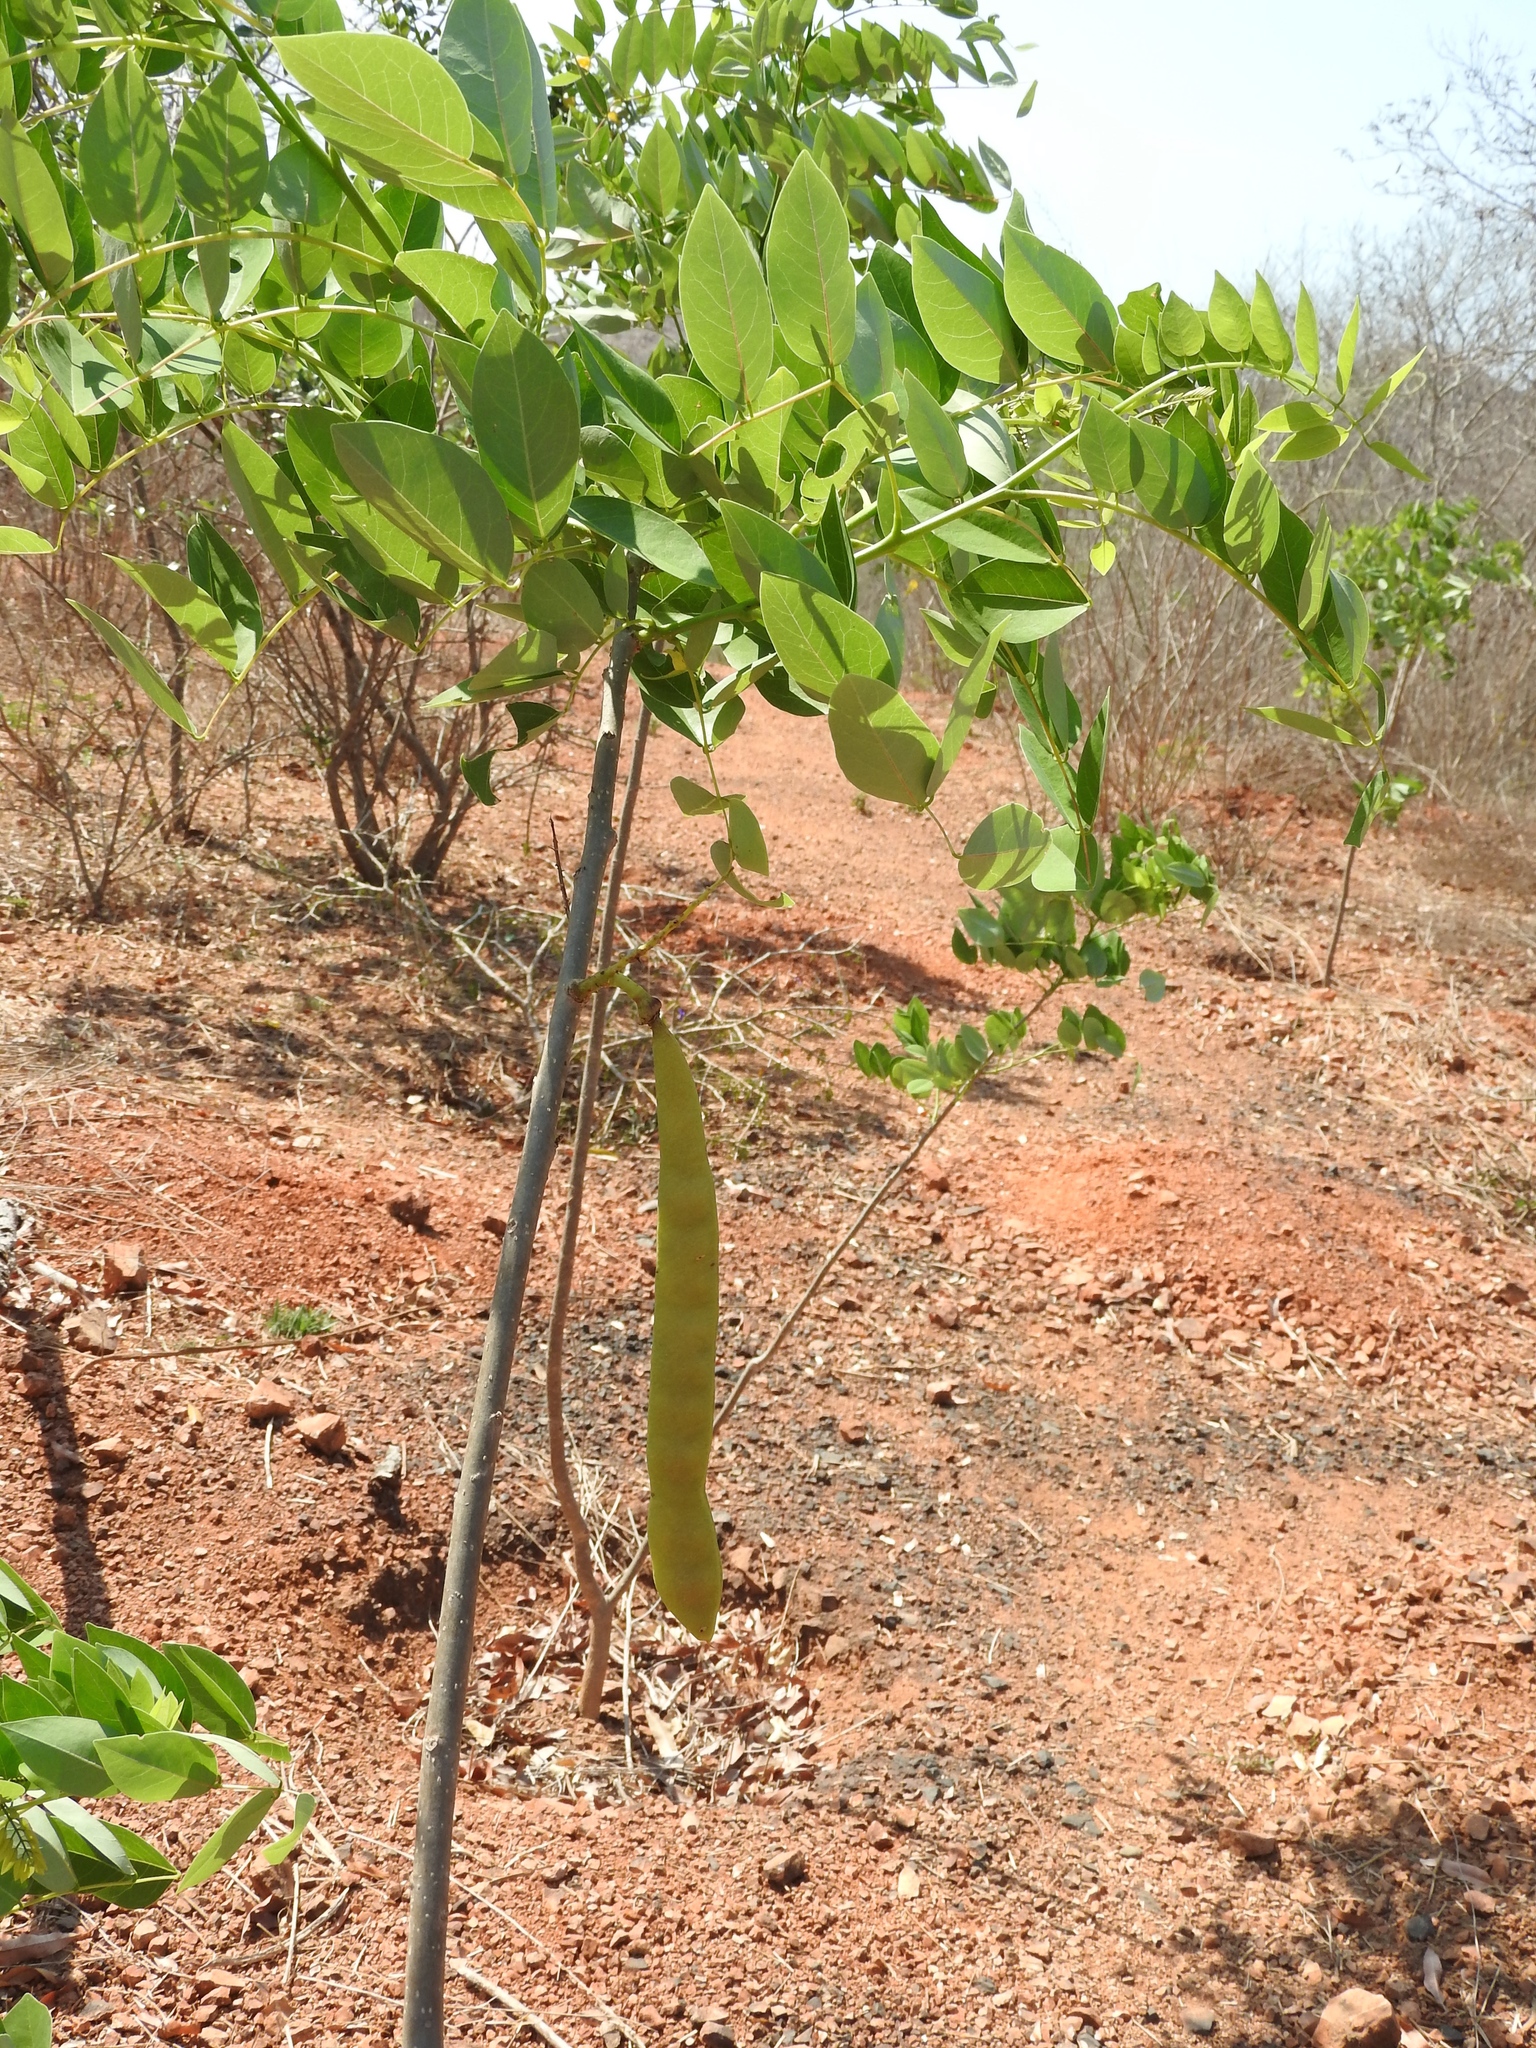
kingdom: Plantae
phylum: Tracheophyta
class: Magnoliopsida
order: Fabales
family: Fabaceae
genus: Gliricidia
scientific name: Gliricidia sepium
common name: Quickstick
